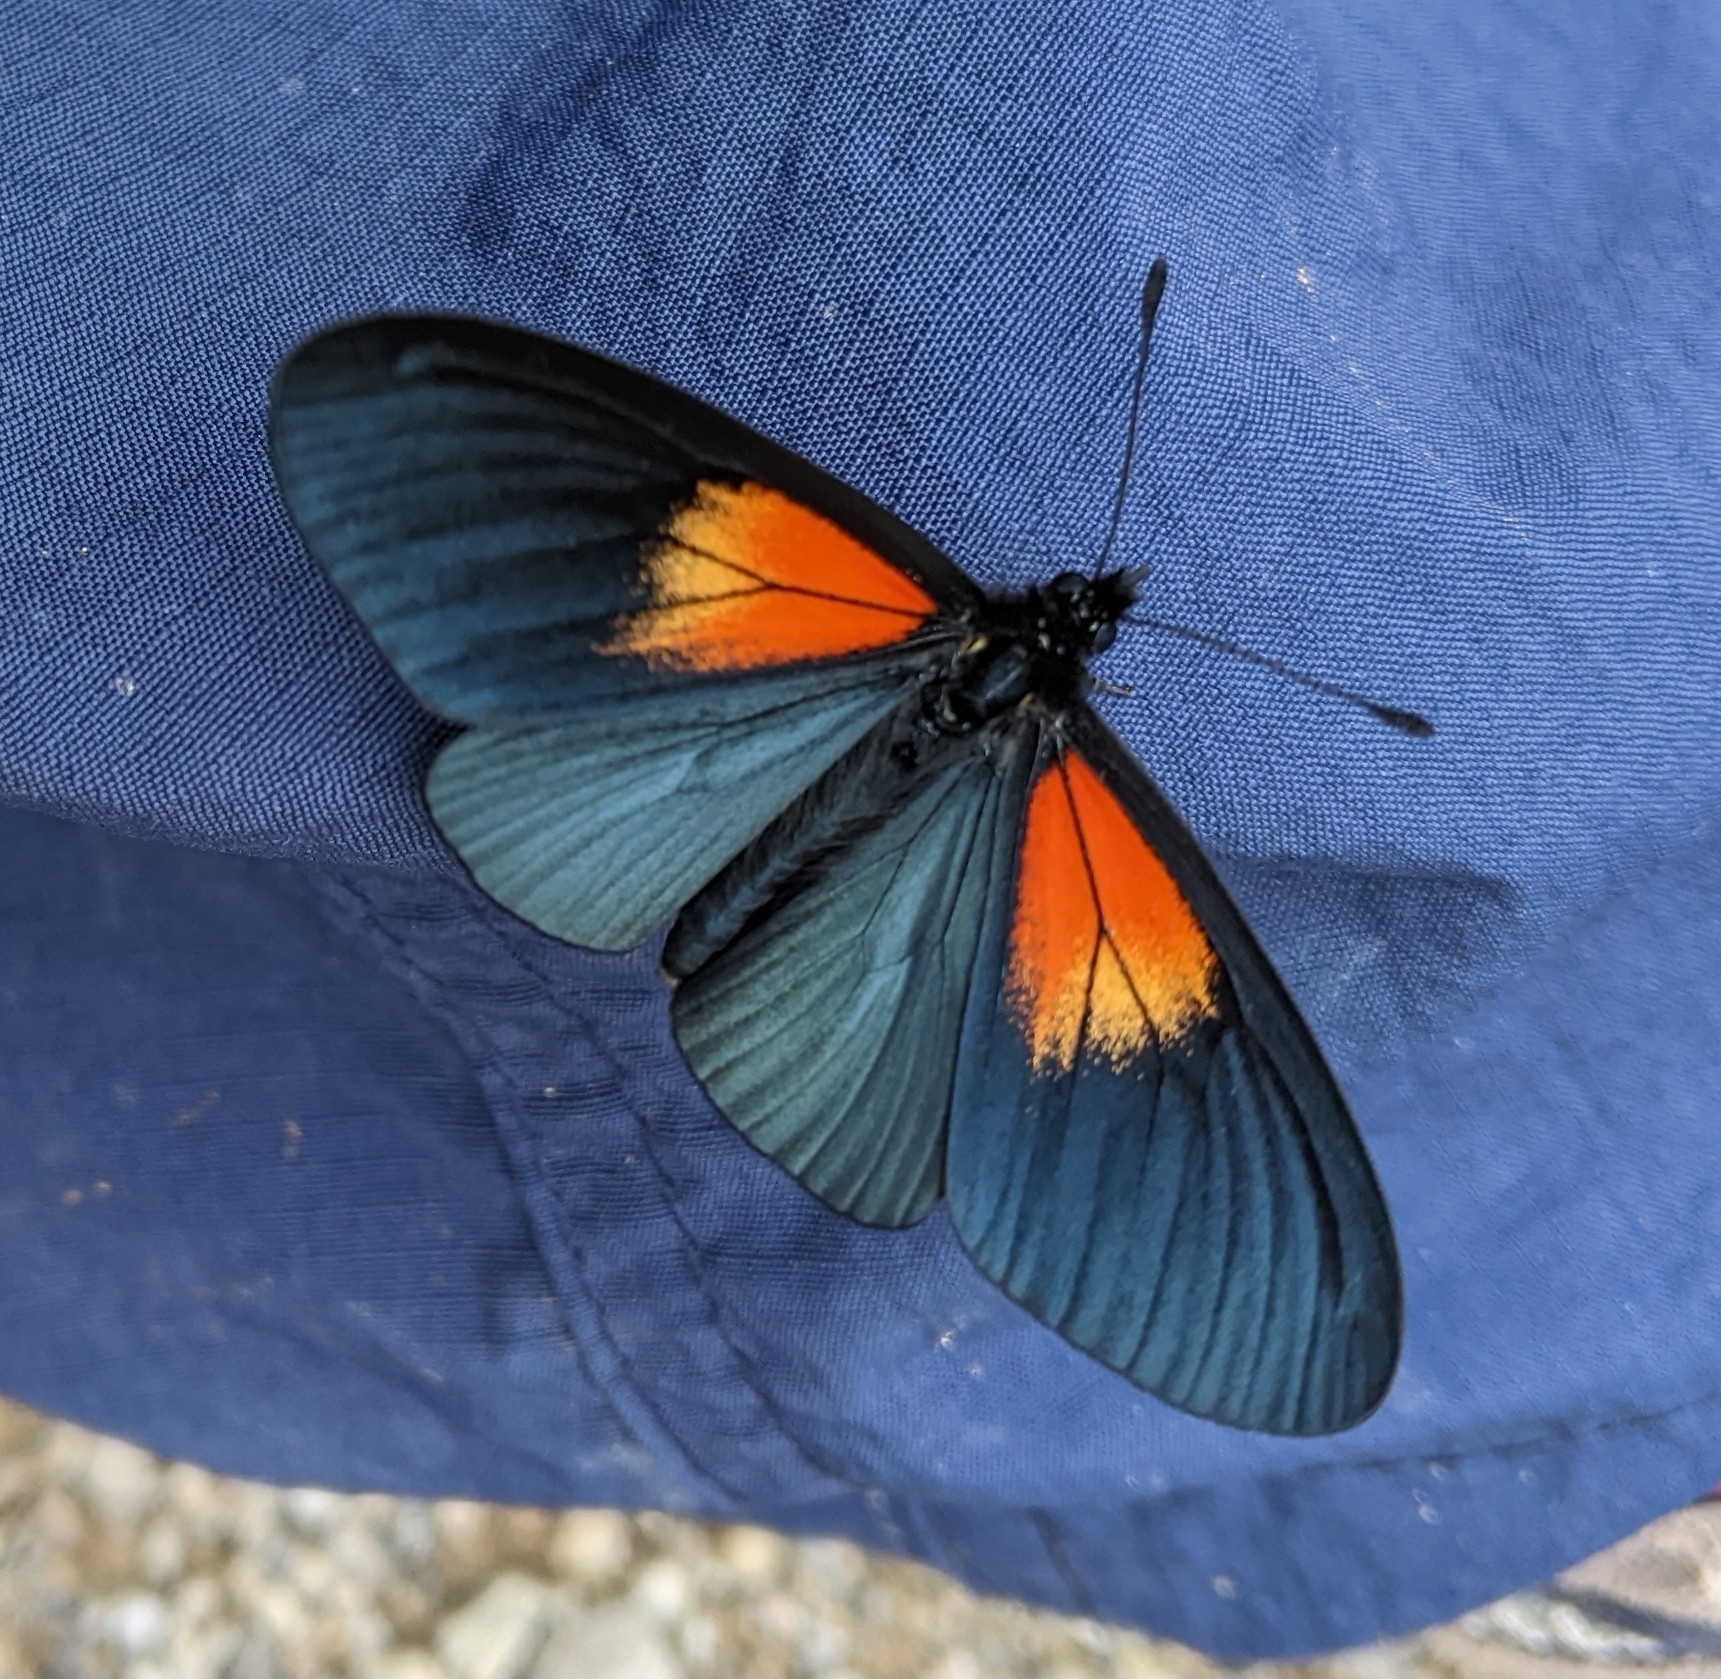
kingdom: Animalia
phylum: Arthropoda
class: Insecta
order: Lepidoptera
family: Nymphalidae
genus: Acraea
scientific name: Acraea Altinote ozomene
